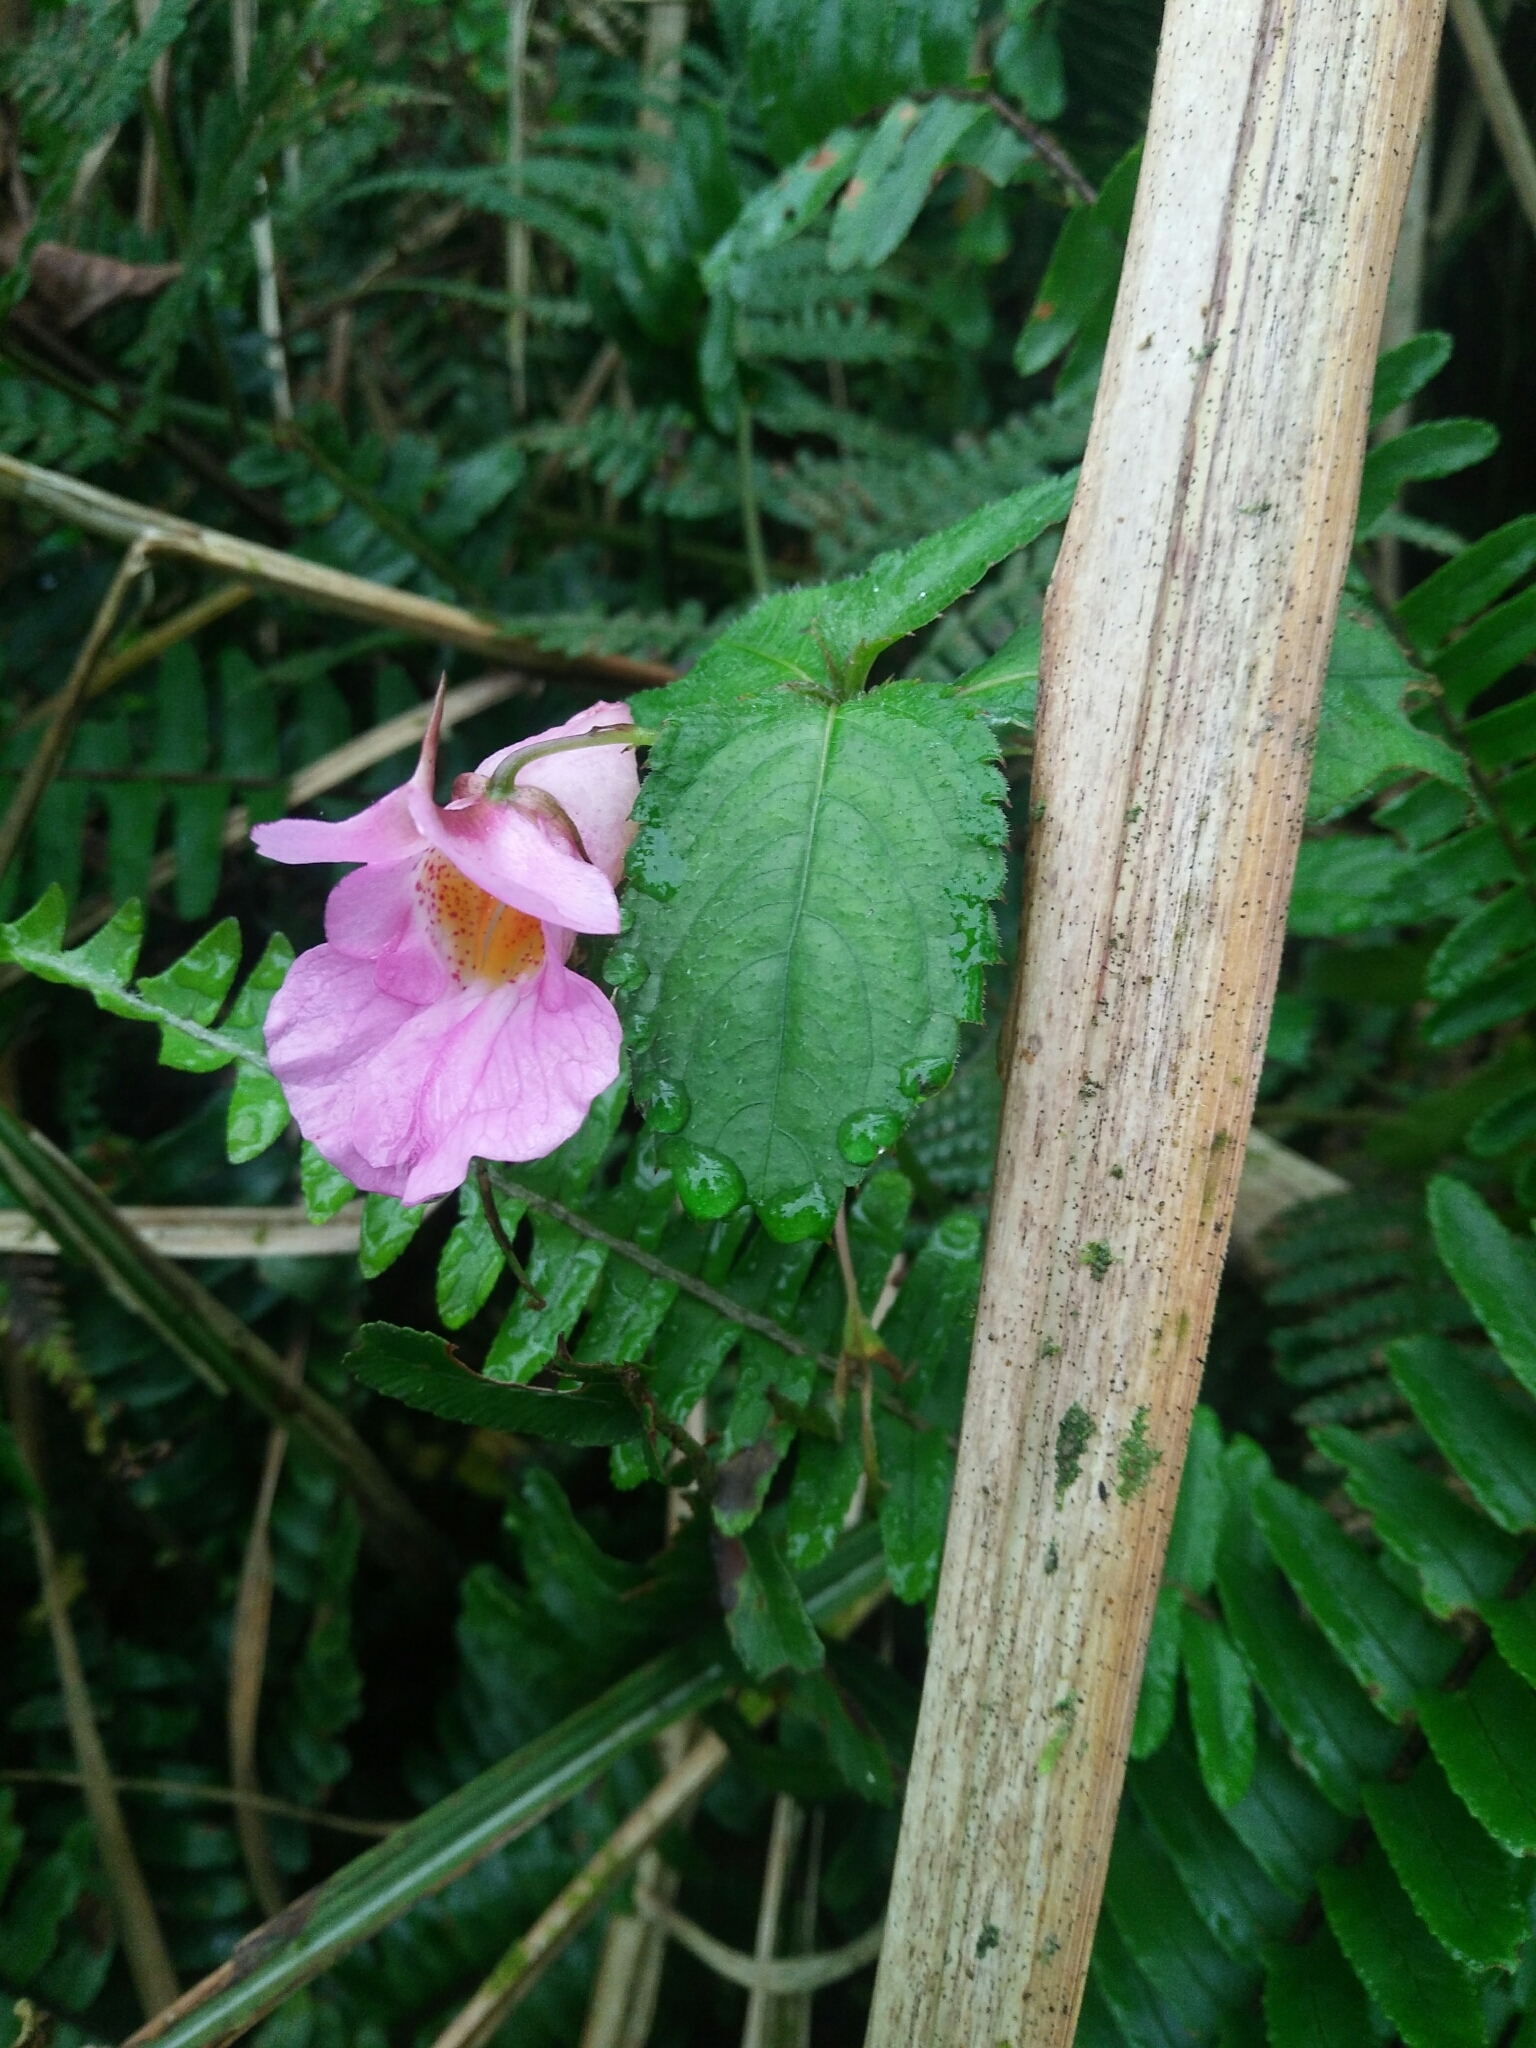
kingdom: Plantae
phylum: Tracheophyta
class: Magnoliopsida
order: Ericales
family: Balsaminaceae
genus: Impatiens
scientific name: Impatiens uniflora
